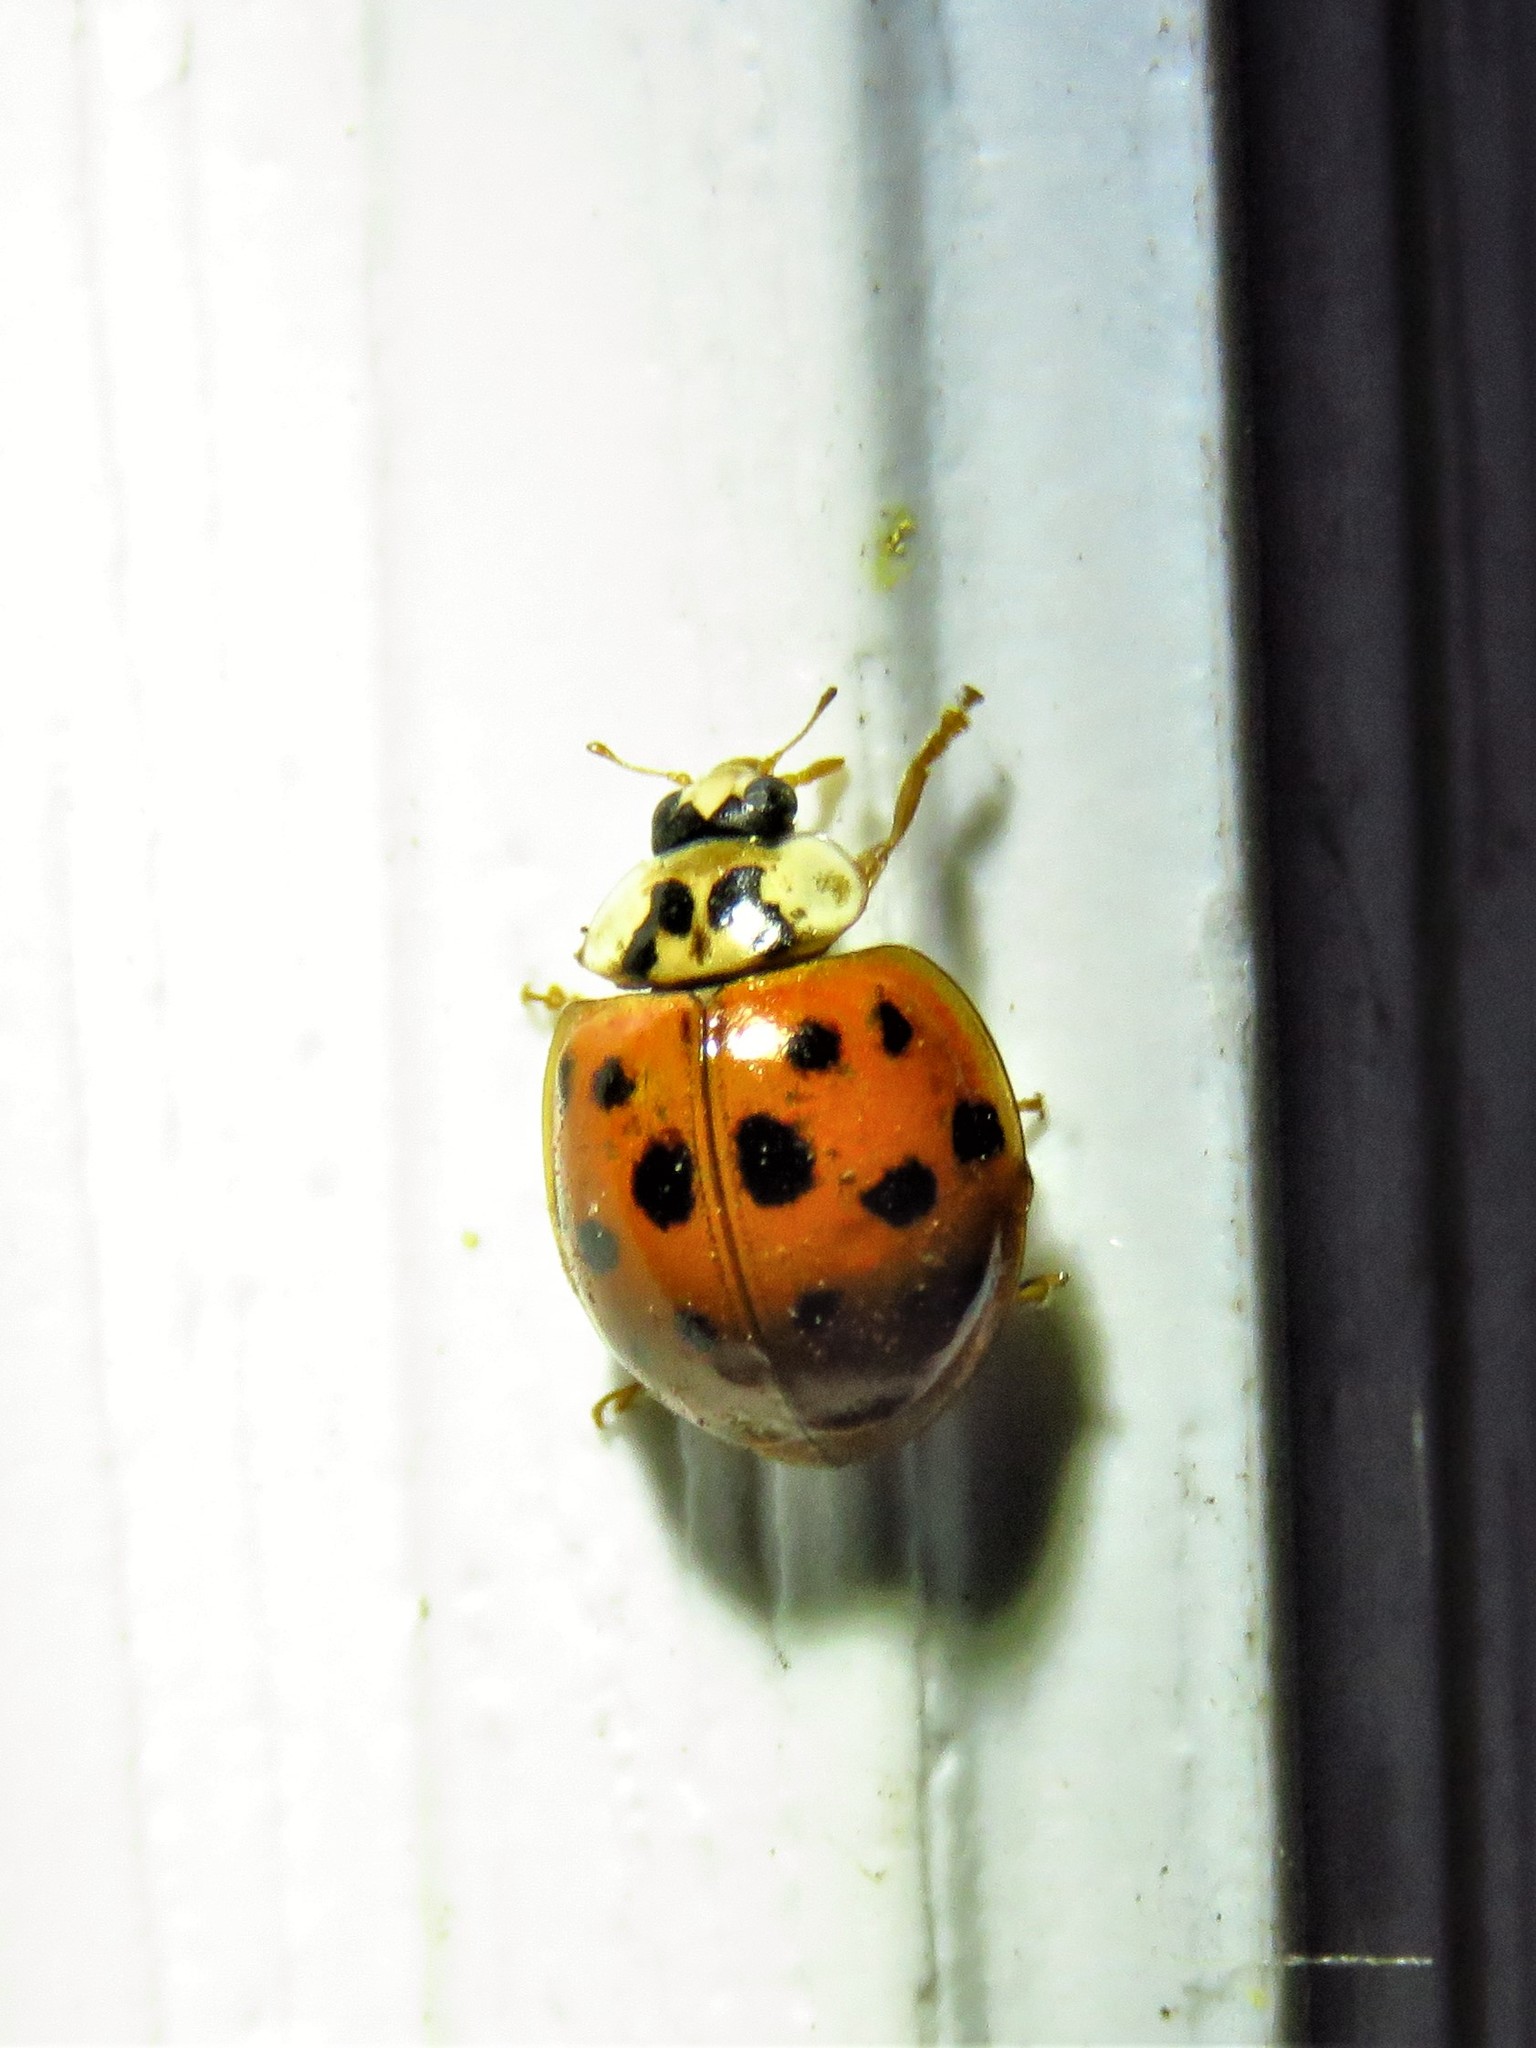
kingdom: Animalia
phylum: Arthropoda
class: Insecta
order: Coleoptera
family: Coccinellidae
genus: Harmonia
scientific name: Harmonia axyridis
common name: Harlequin ladybird
